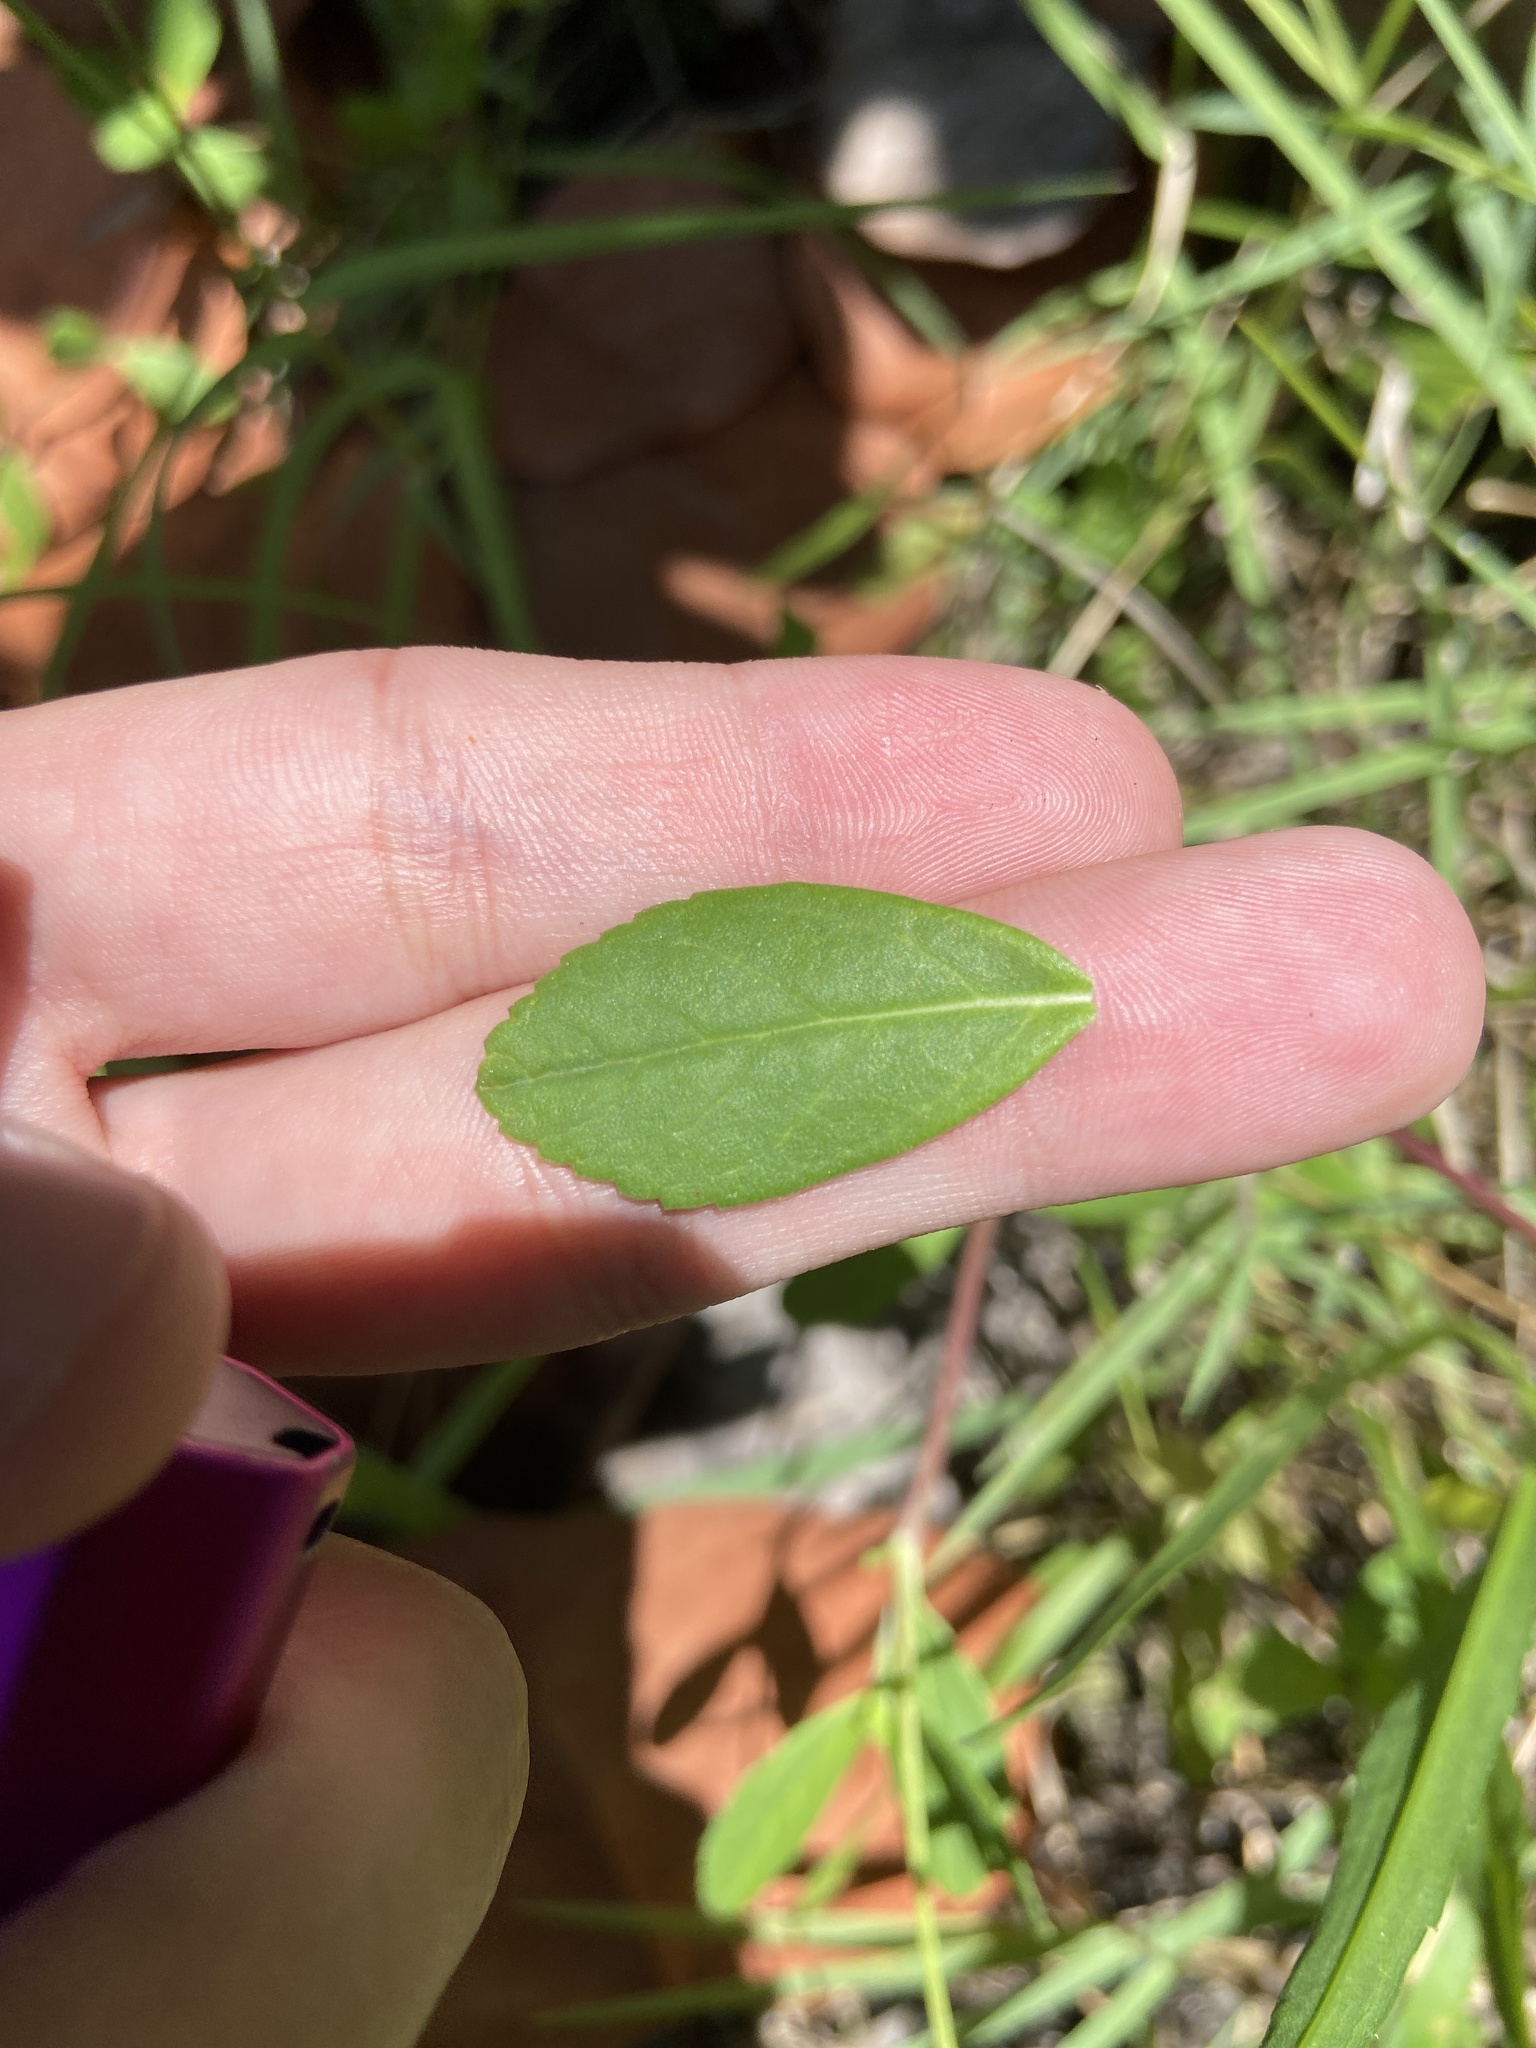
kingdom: Plantae
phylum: Tracheophyta
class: Magnoliopsida
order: Lamiales
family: Verbenaceae
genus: Phyla
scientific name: Phyla nodiflora
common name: Frogfruit
